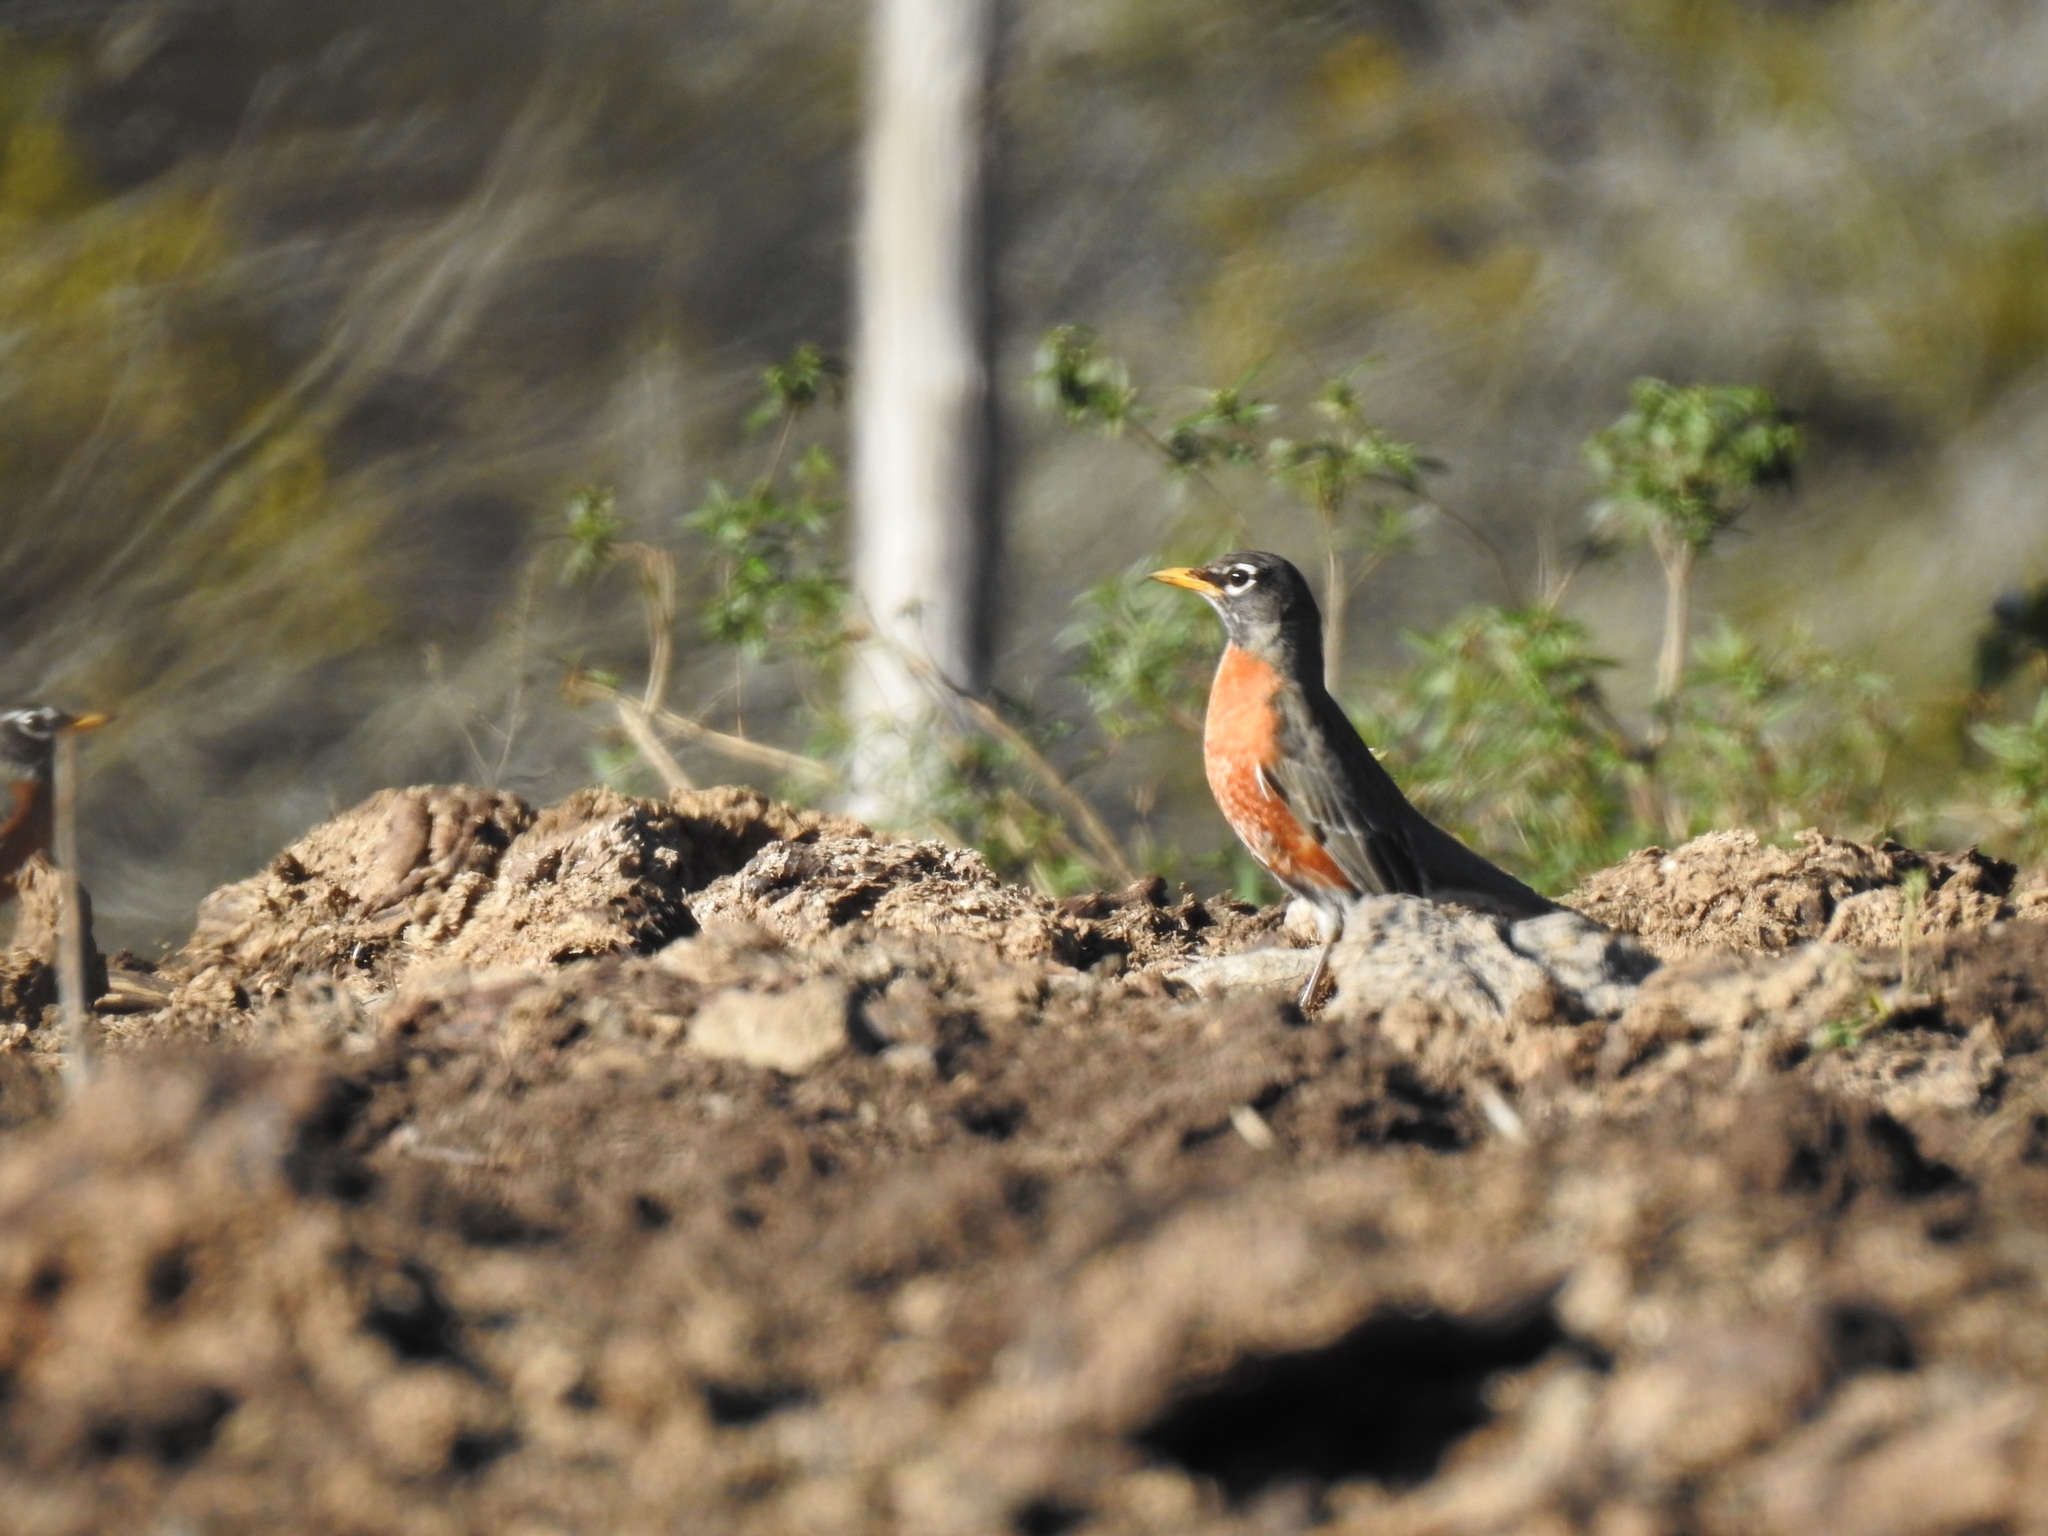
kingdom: Animalia
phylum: Chordata
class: Aves
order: Passeriformes
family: Turdidae
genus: Turdus
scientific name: Turdus migratorius
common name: American robin
